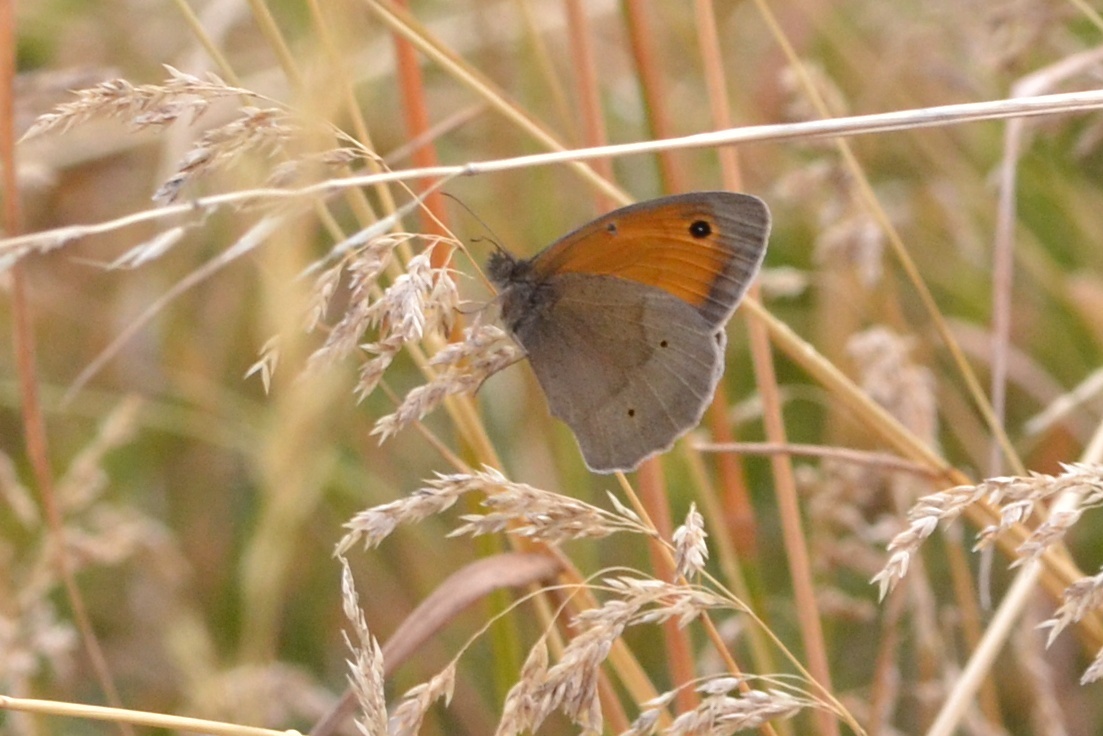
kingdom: Animalia
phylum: Arthropoda
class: Insecta
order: Lepidoptera
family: Nymphalidae
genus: Maniola
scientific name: Maniola jurtina
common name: Meadow brown
